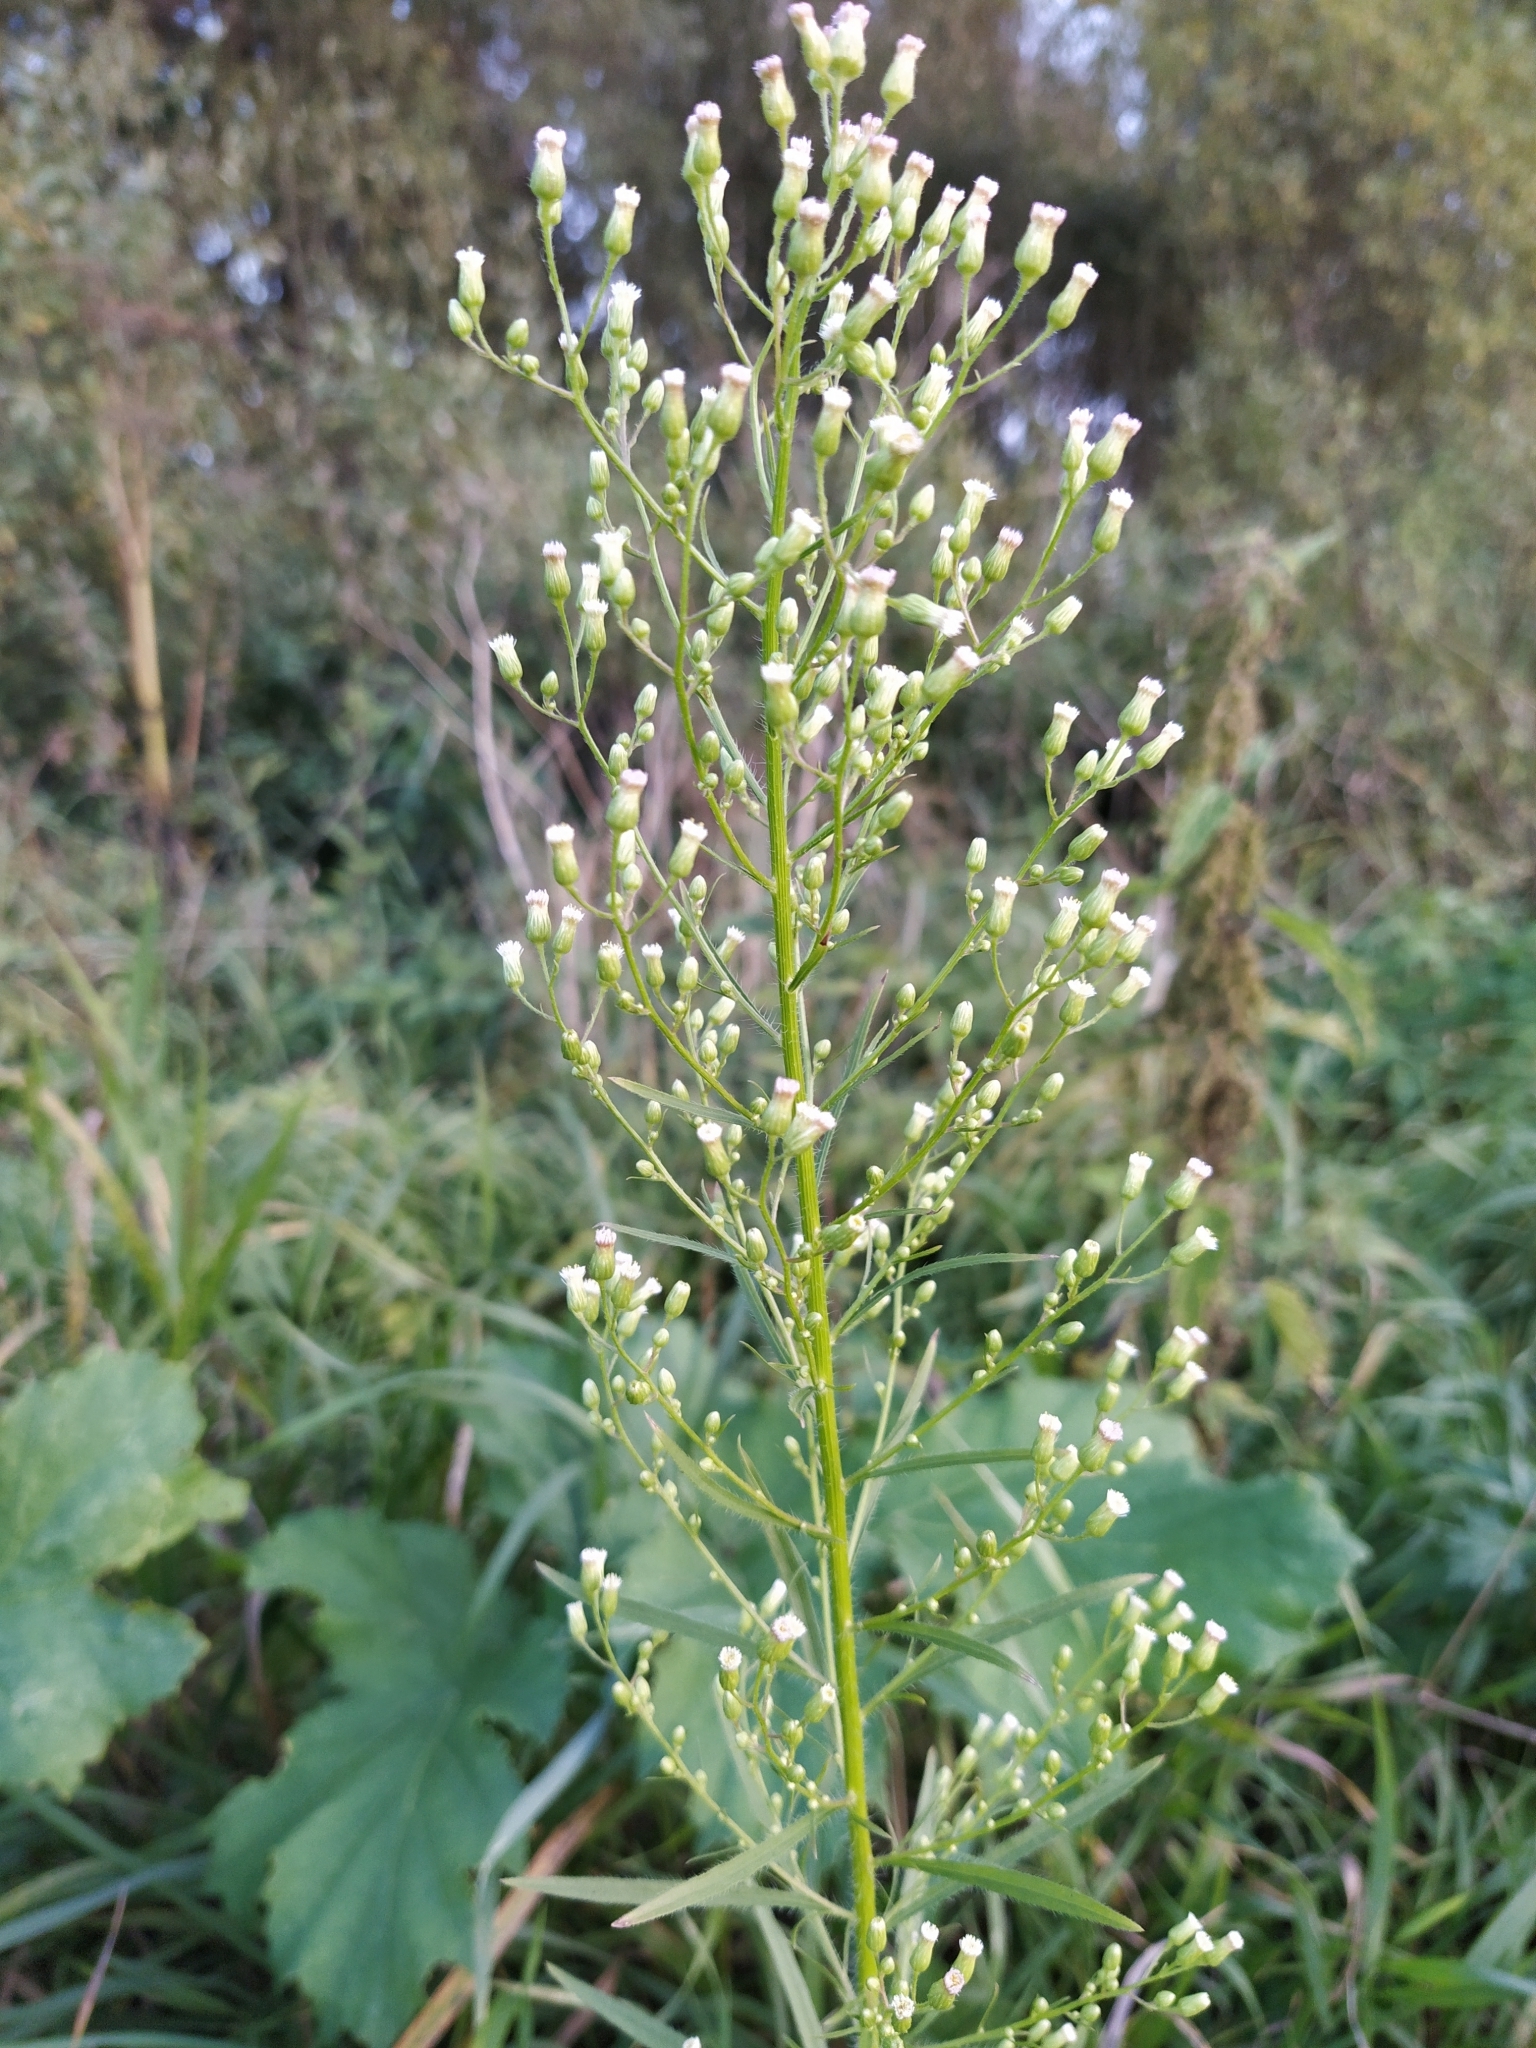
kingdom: Plantae
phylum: Tracheophyta
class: Magnoliopsida
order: Asterales
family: Asteraceae
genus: Erigeron
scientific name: Erigeron canadensis
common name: Canadian fleabane
